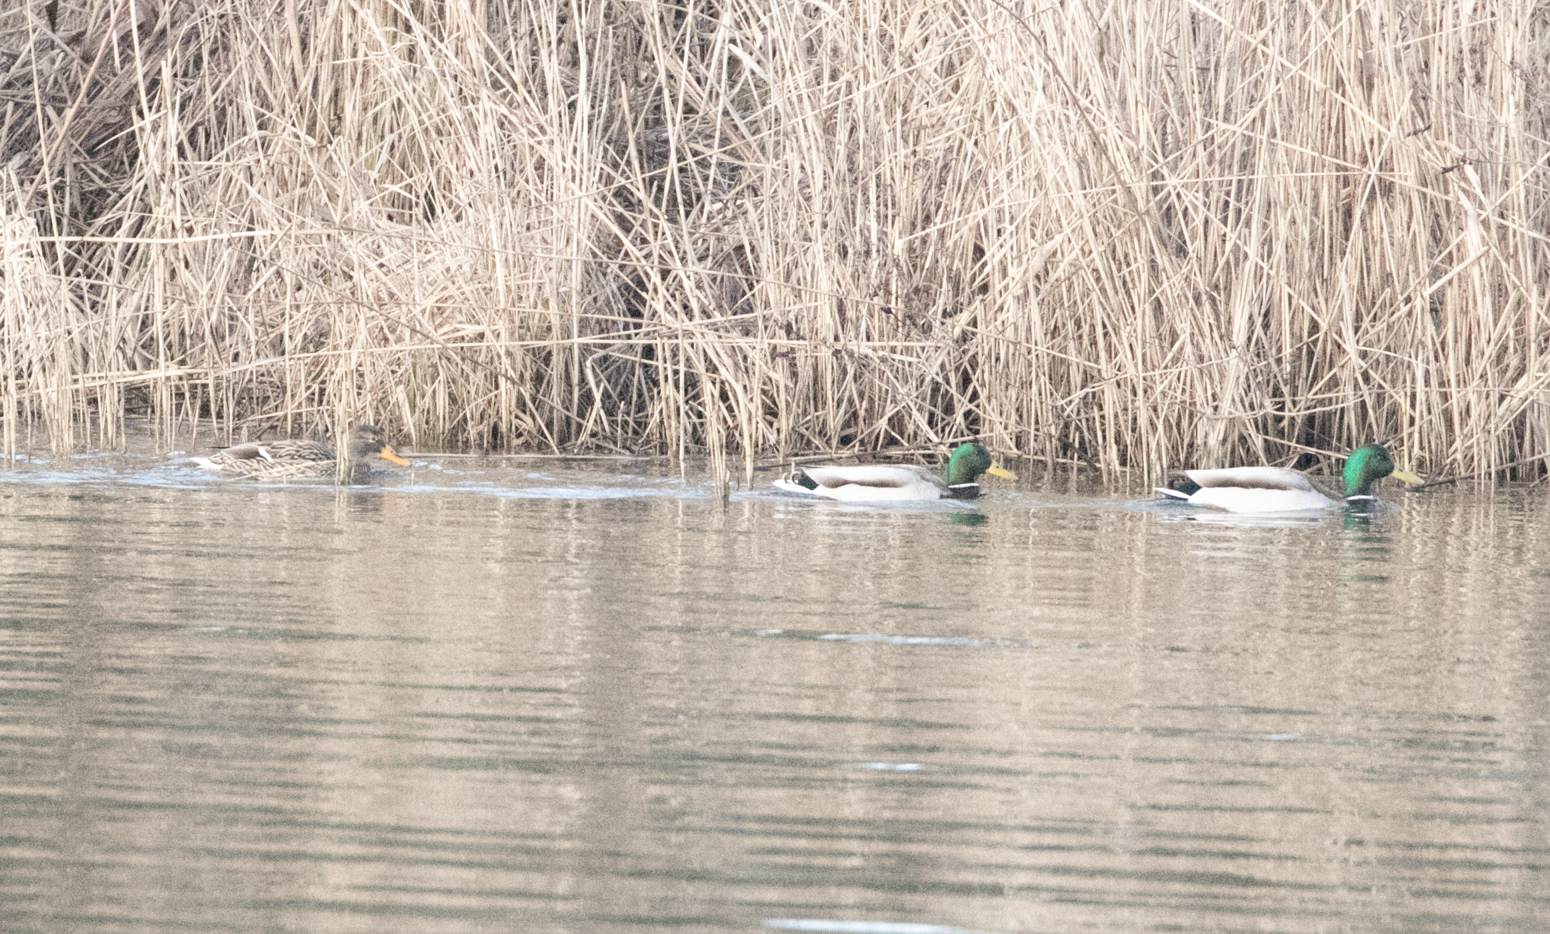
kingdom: Animalia
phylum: Chordata
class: Aves
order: Anseriformes
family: Anatidae
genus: Anas
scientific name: Anas platyrhynchos
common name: Mallard
